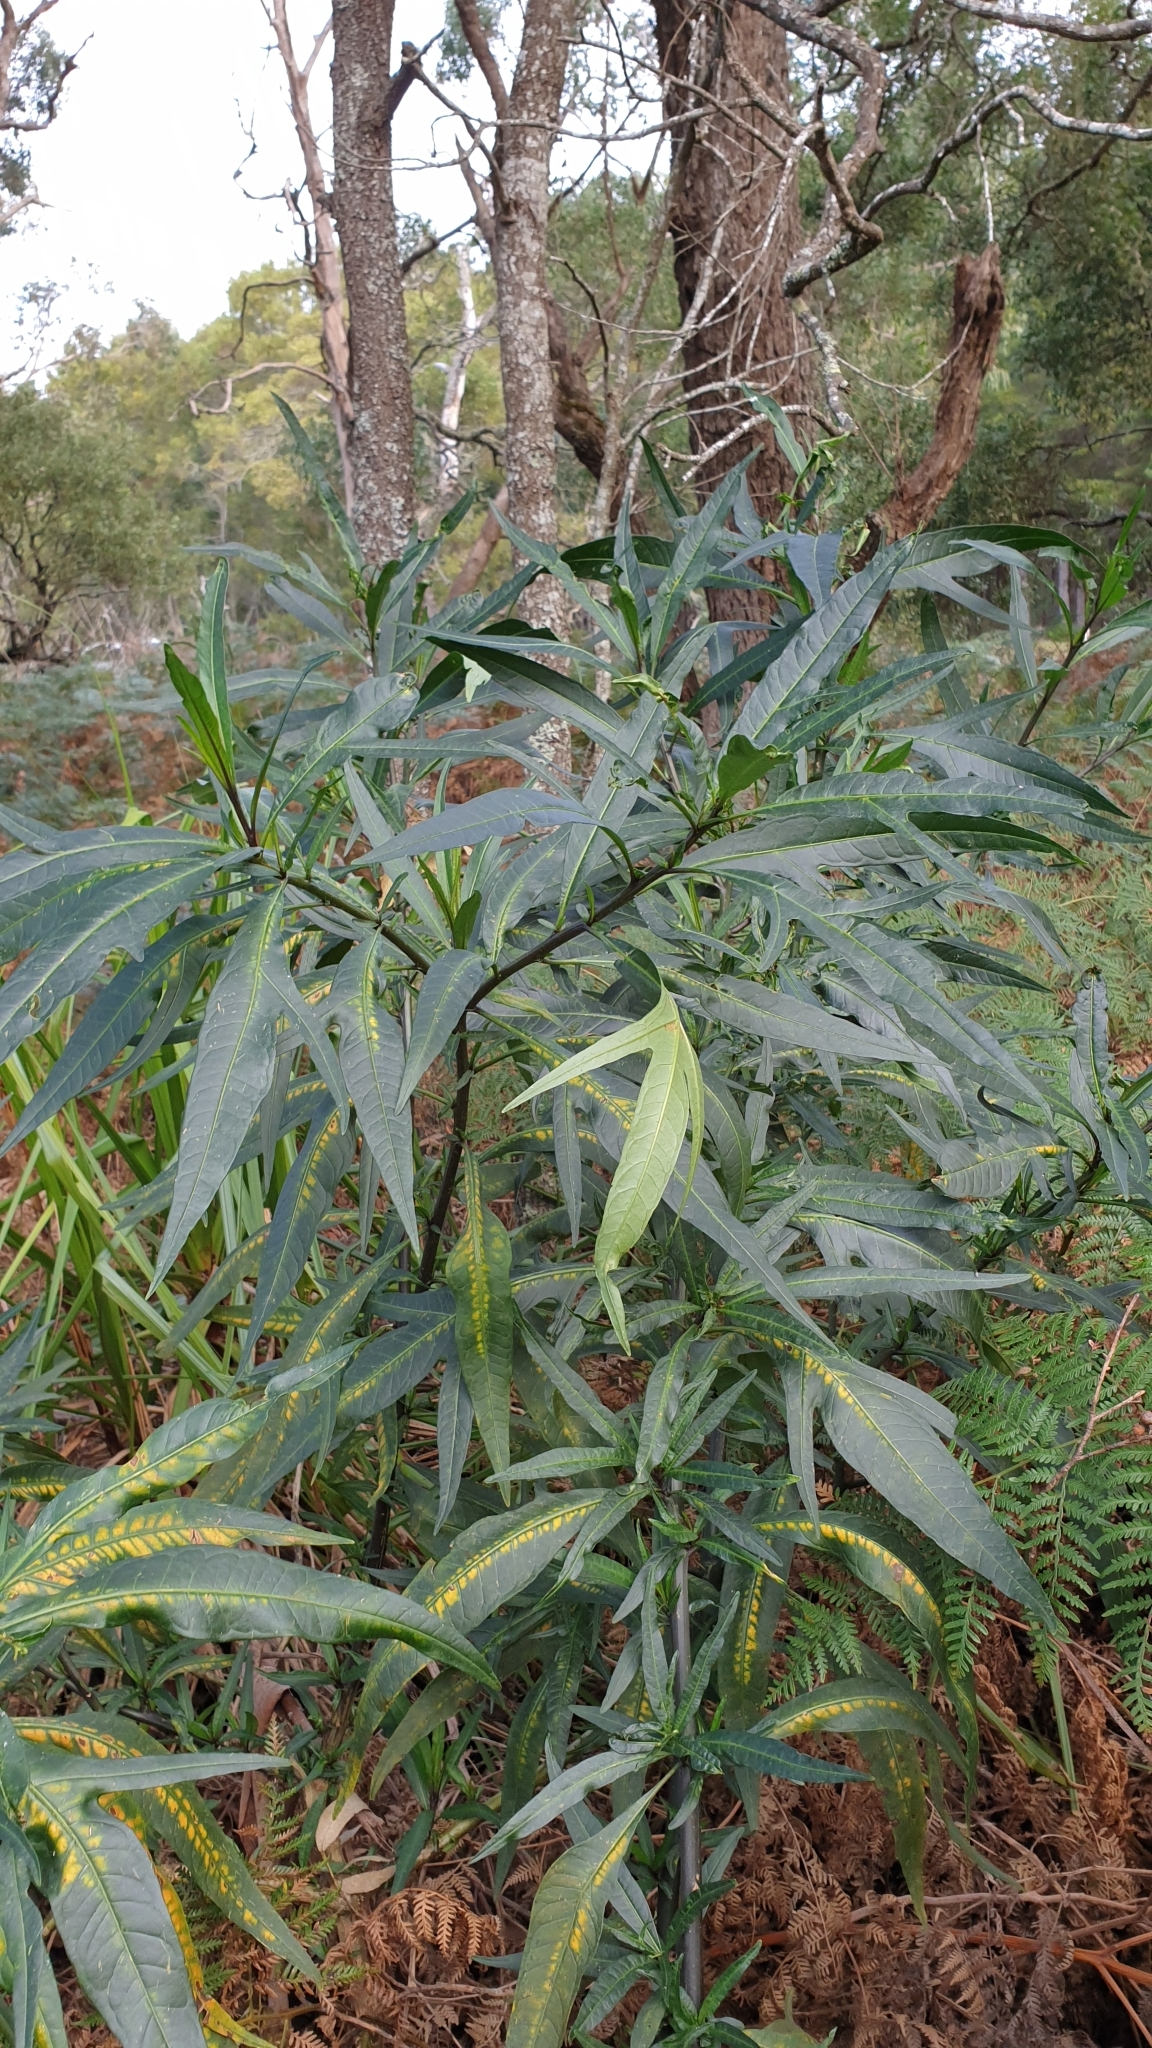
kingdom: Plantae
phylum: Tracheophyta
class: Magnoliopsida
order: Solanales
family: Solanaceae
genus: Solanum
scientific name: Solanum laciniatum
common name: Kangaroo-apple
